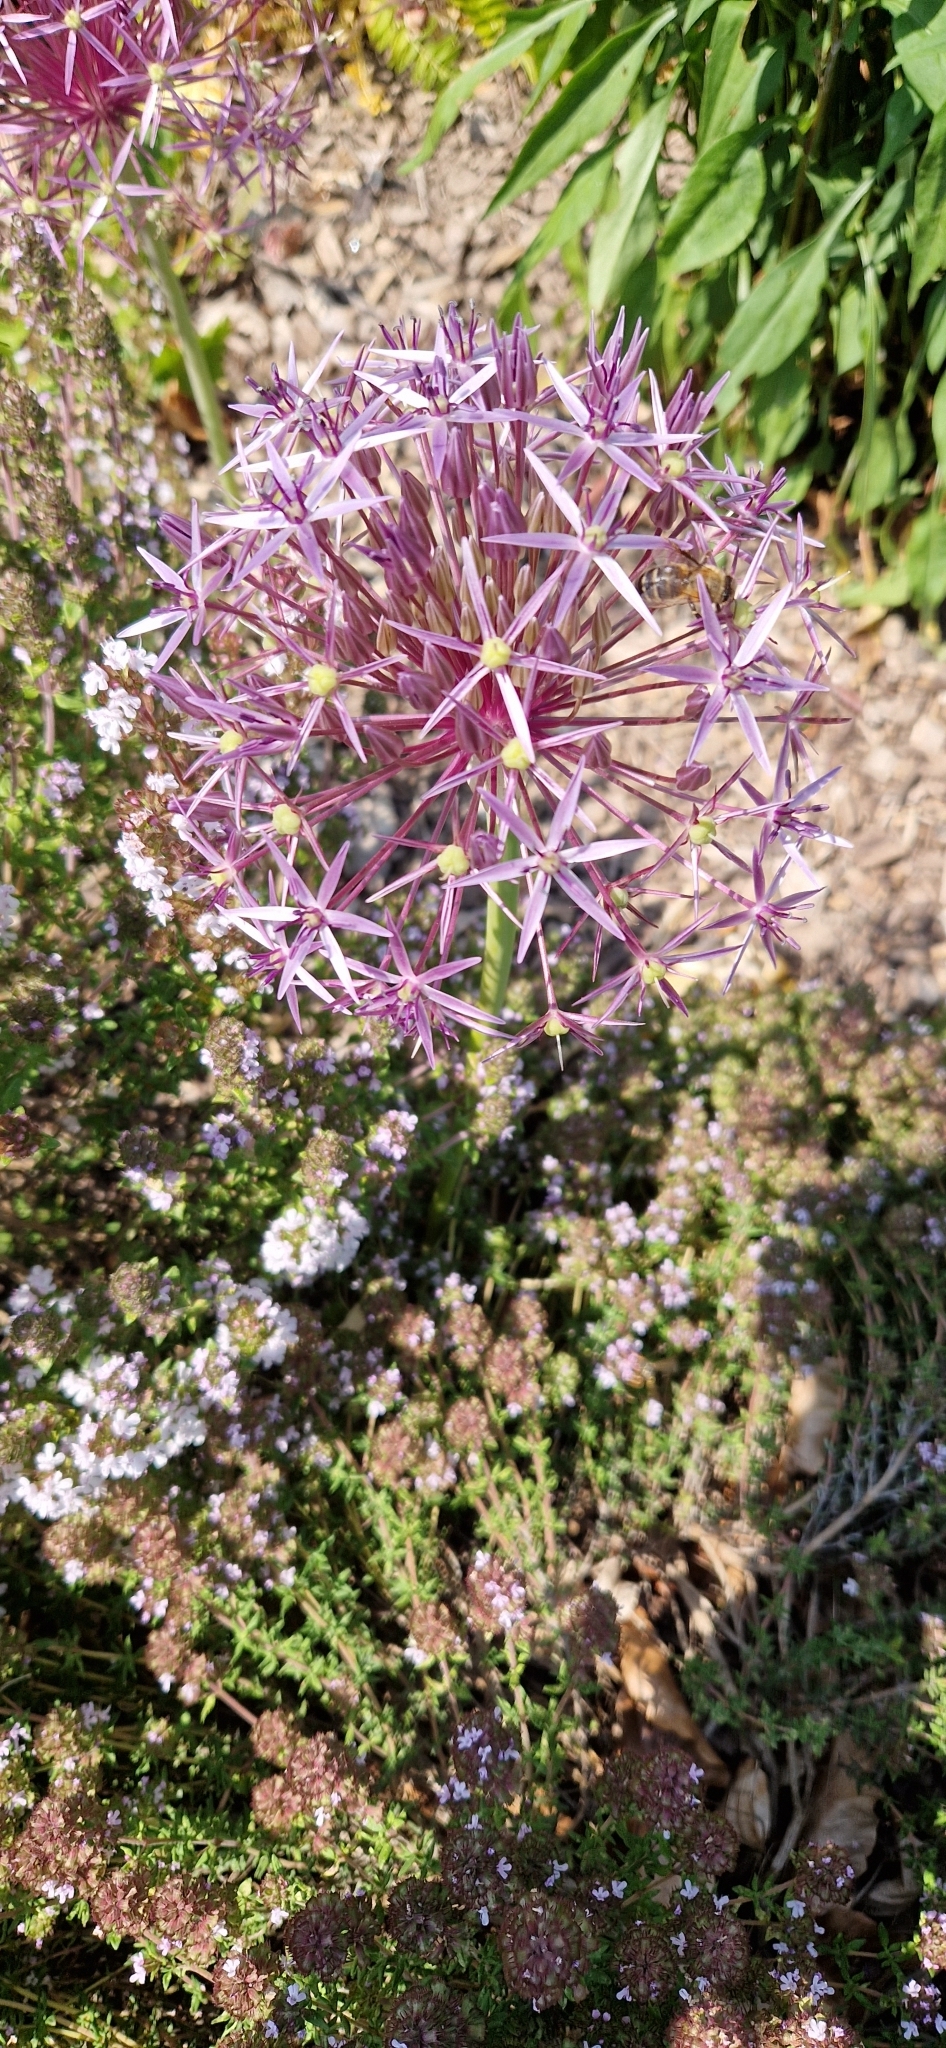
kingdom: Plantae
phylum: Tracheophyta
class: Liliopsida
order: Asparagales
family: Amaryllidaceae
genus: Allium
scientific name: Allium cristophii
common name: Persian onion
